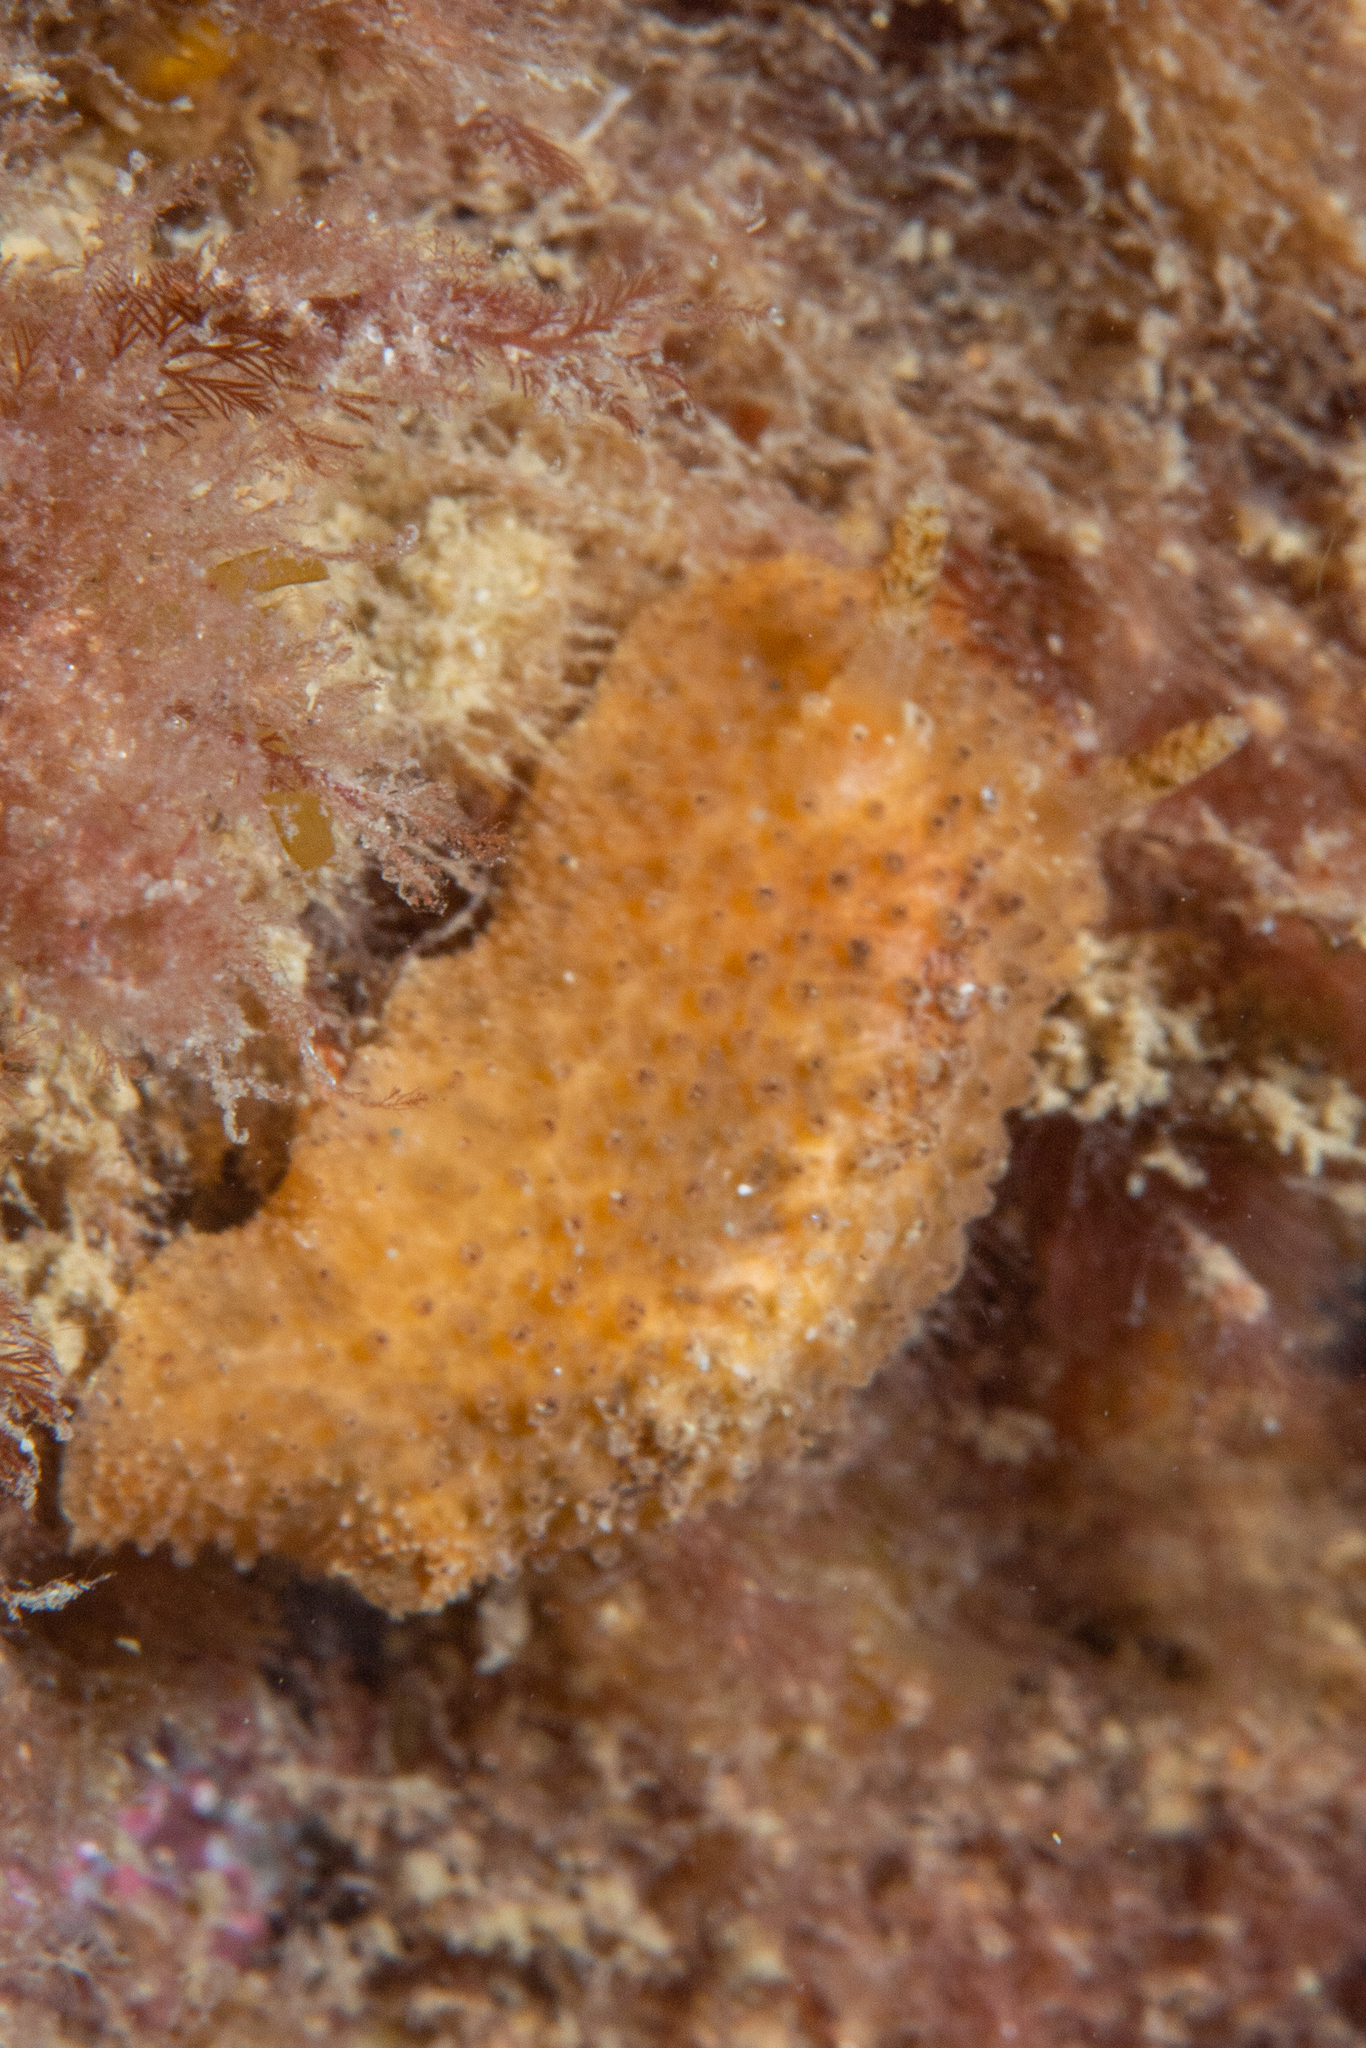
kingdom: Animalia
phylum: Mollusca
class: Gastropoda
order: Nudibranchia
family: Dorididae
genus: Doris
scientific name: Doris cameroni
